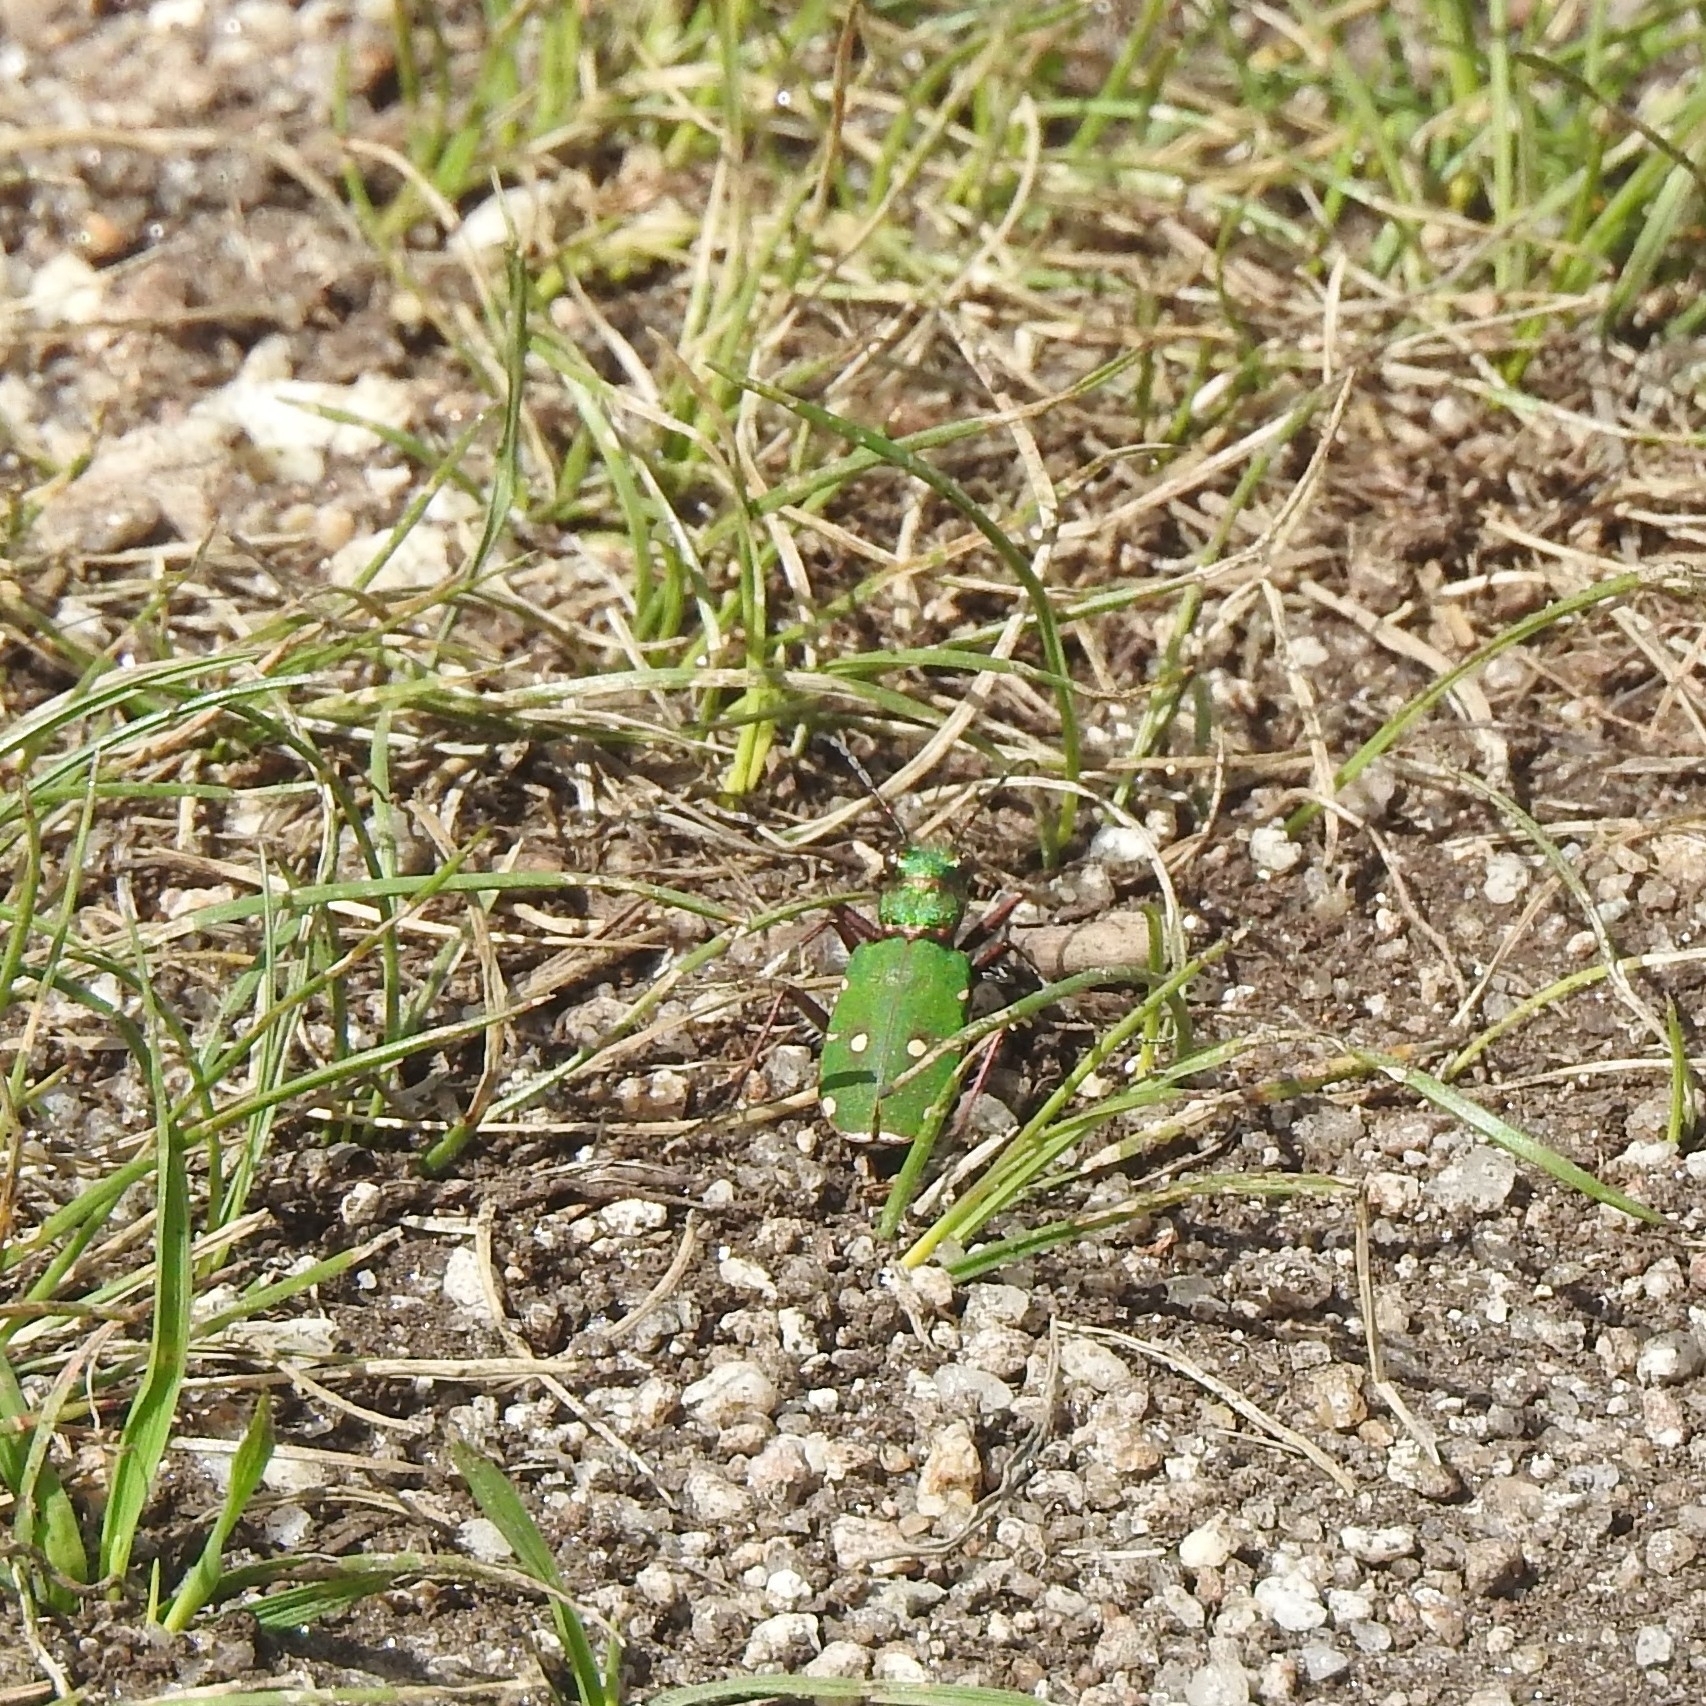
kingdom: Animalia
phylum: Arthropoda
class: Insecta
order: Coleoptera
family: Carabidae
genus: Cicindela
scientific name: Cicindela campestris
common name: Common tiger beetle
